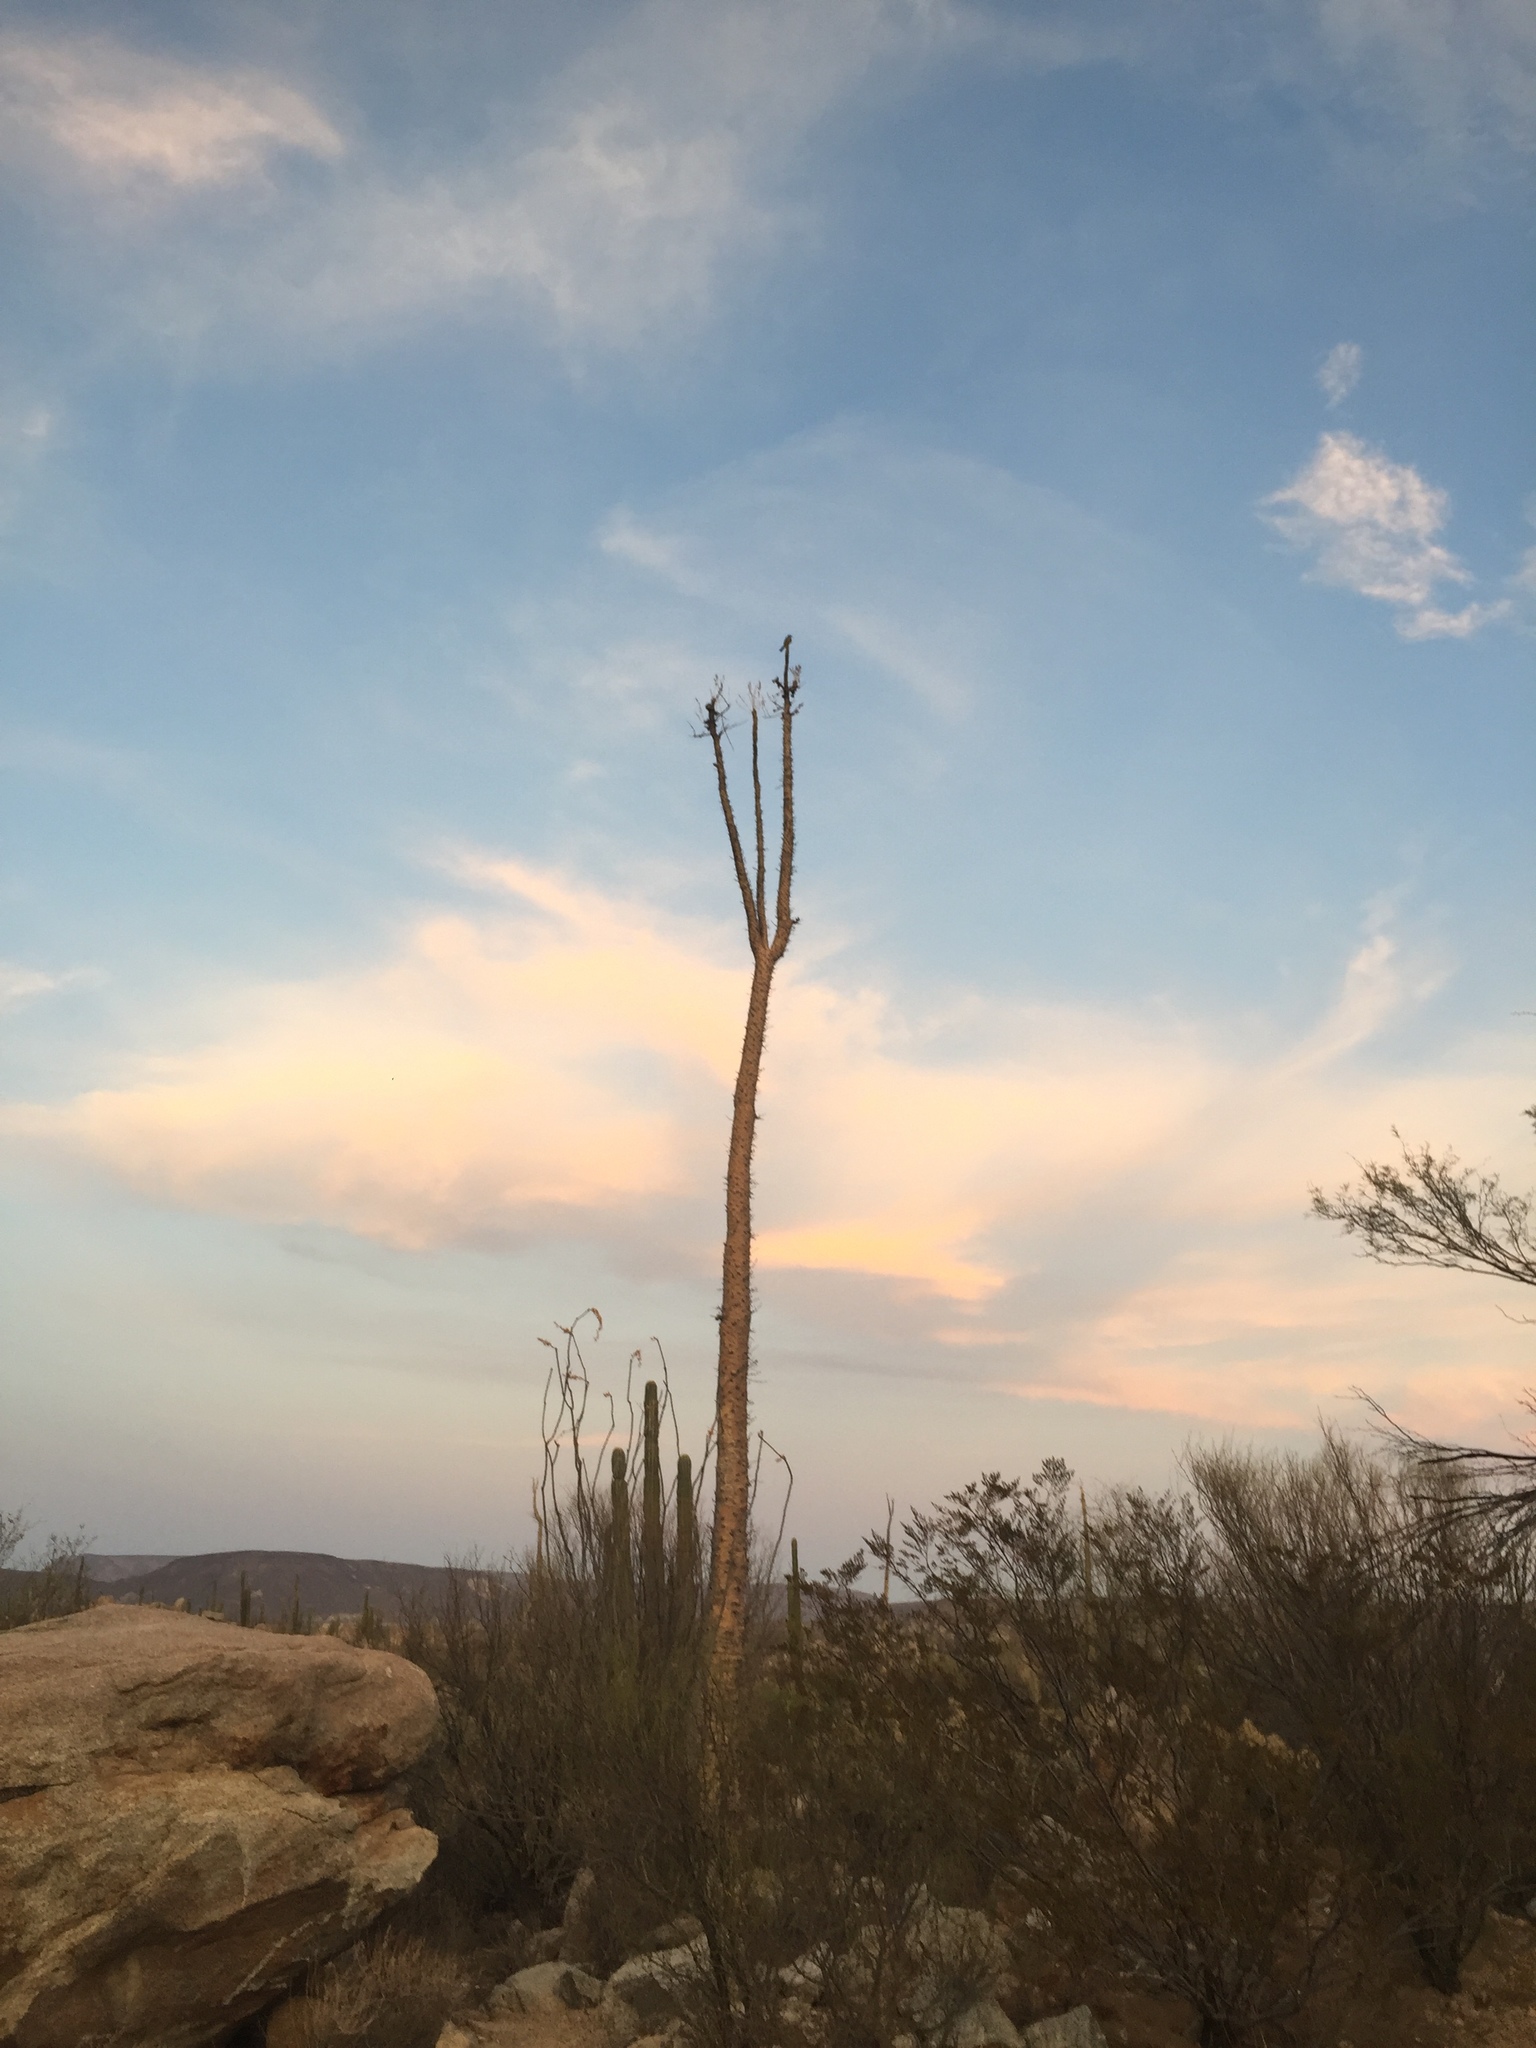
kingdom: Plantae
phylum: Tracheophyta
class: Magnoliopsida
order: Ericales
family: Fouquieriaceae
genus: Fouquieria
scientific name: Fouquieria columnaris
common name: Boojumtree
